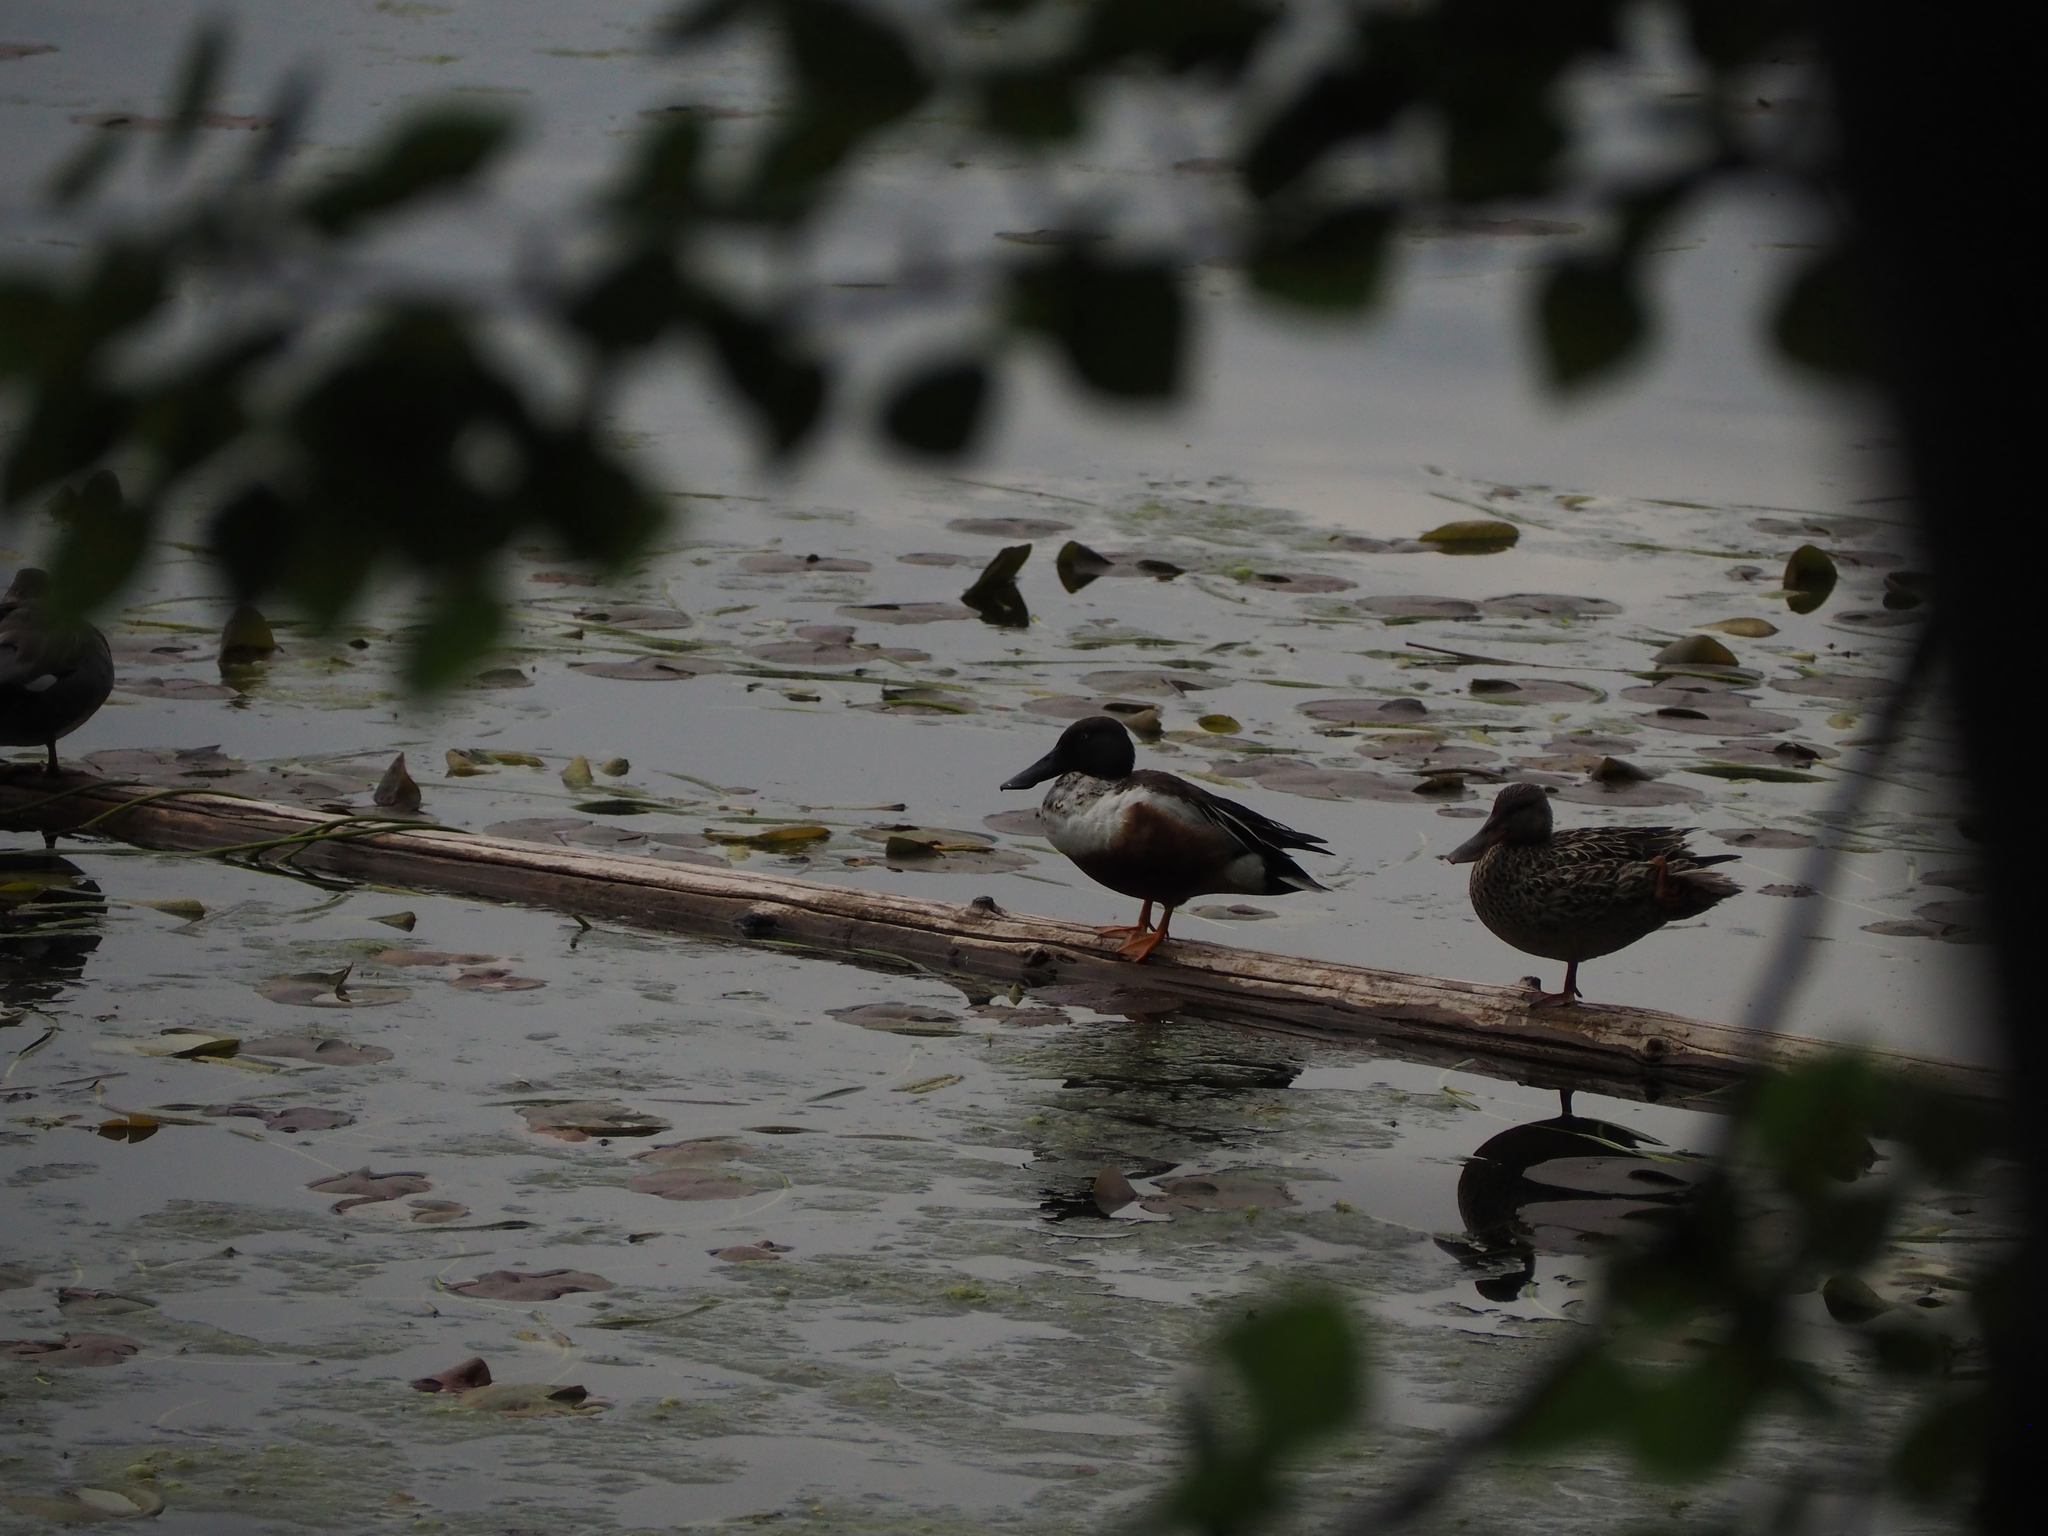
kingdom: Animalia
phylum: Chordata
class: Aves
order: Anseriformes
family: Anatidae
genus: Spatula
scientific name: Spatula clypeata
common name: Northern shoveler
